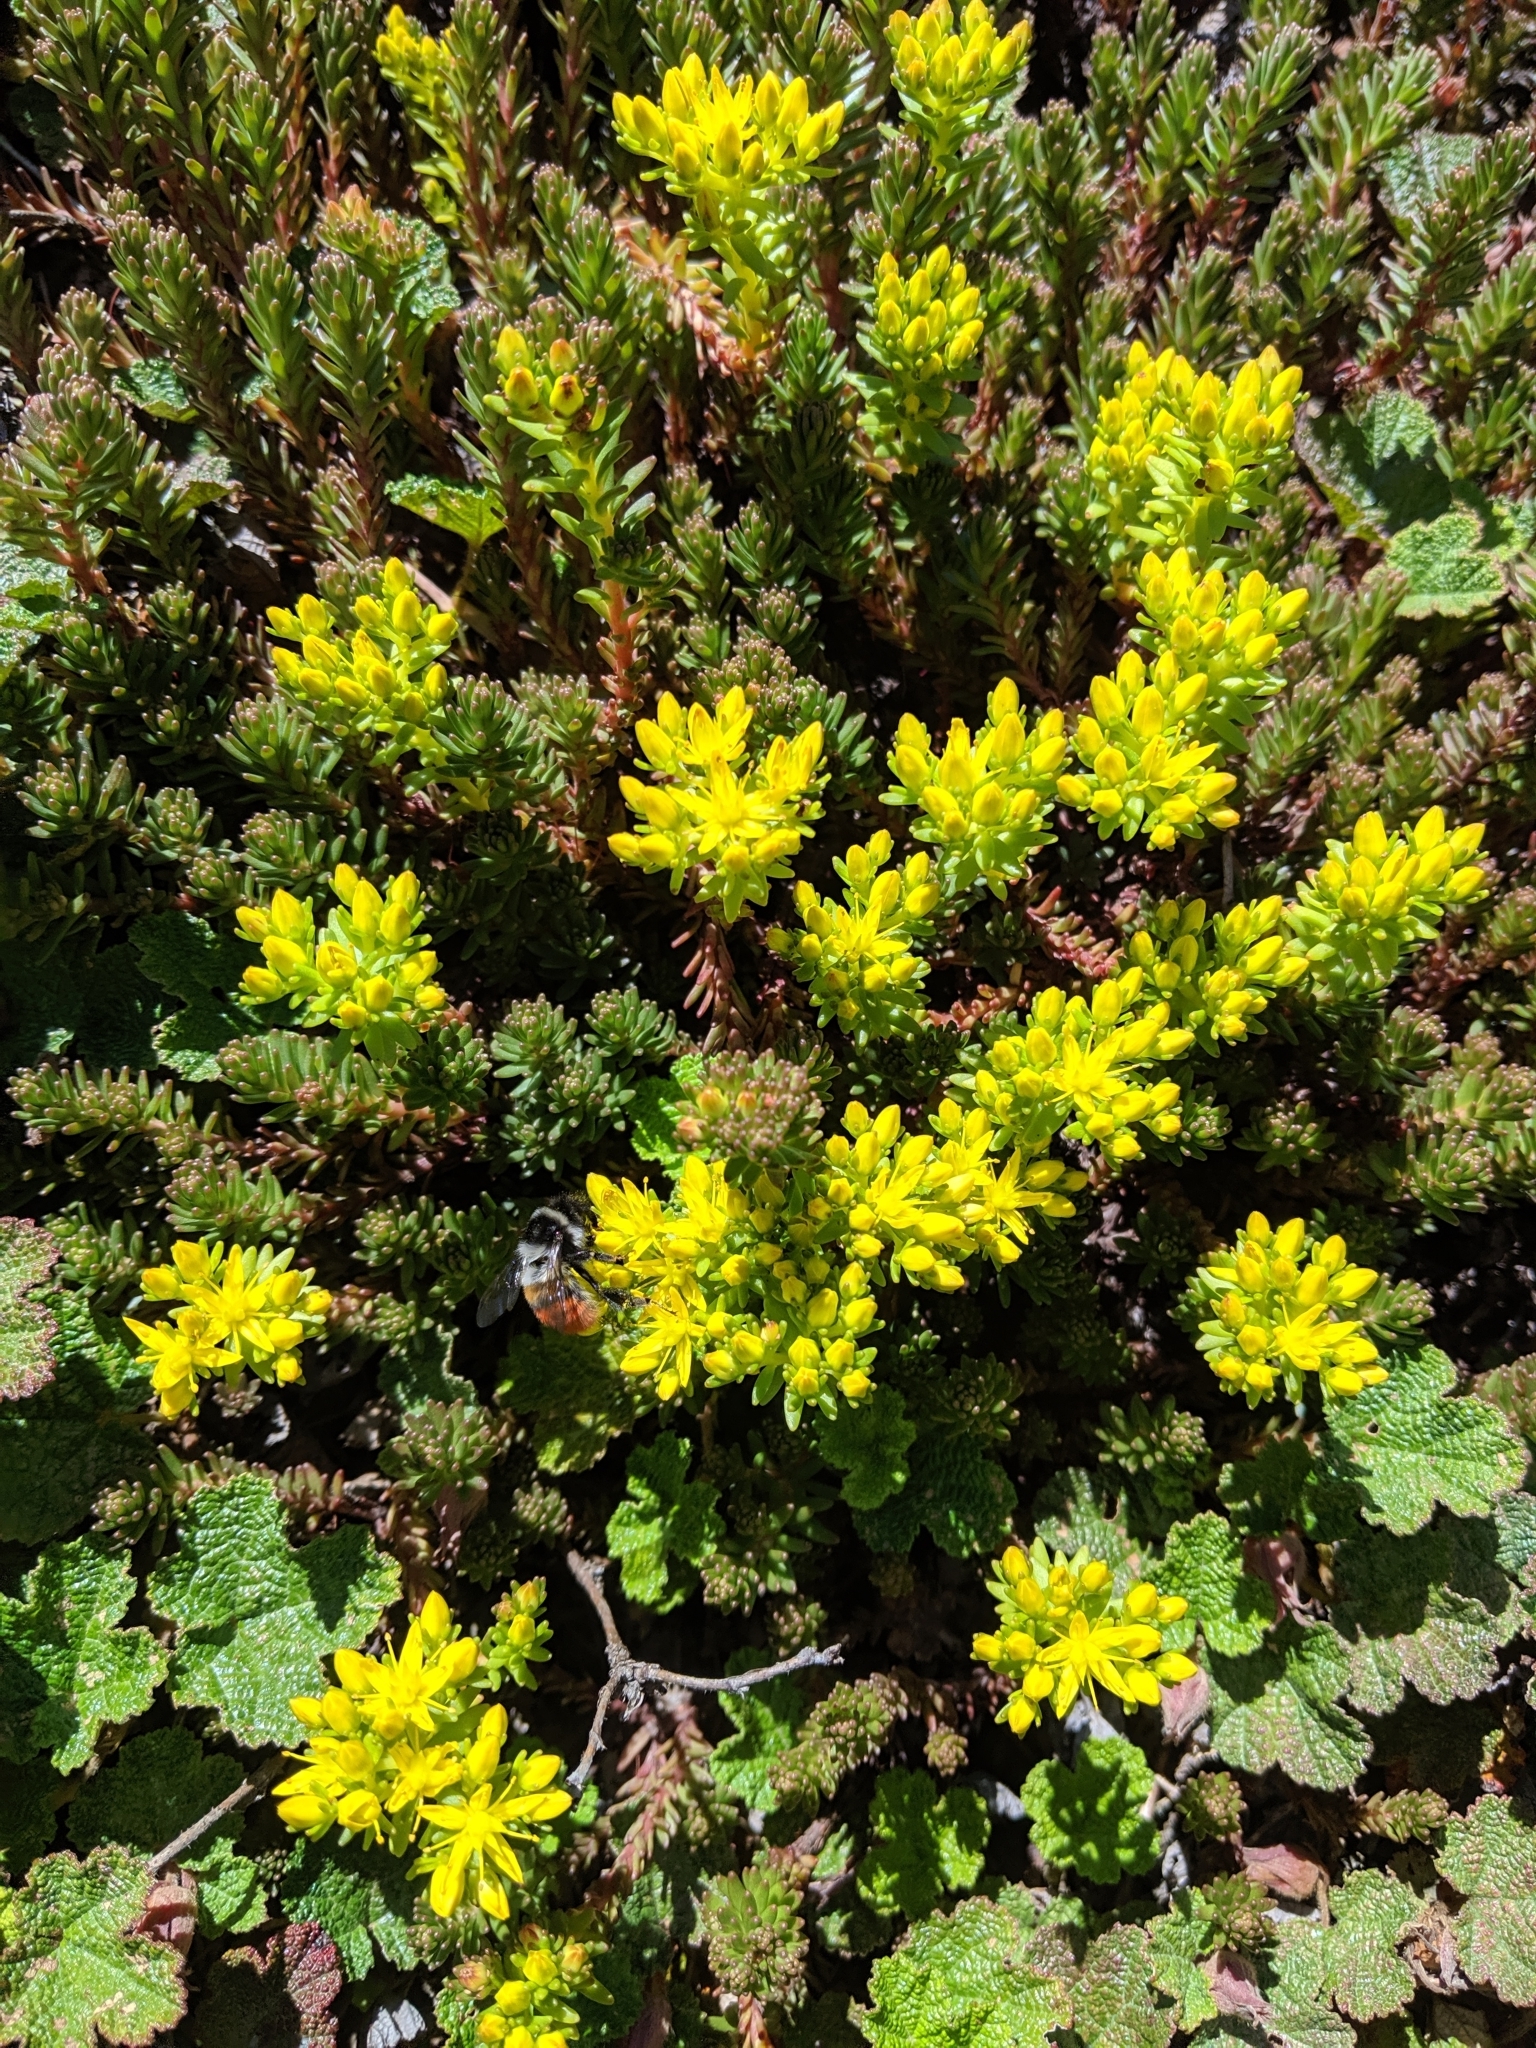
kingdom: Animalia
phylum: Arthropoda
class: Insecta
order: Hymenoptera
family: Apidae
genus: Bombus
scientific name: Bombus formosellus
